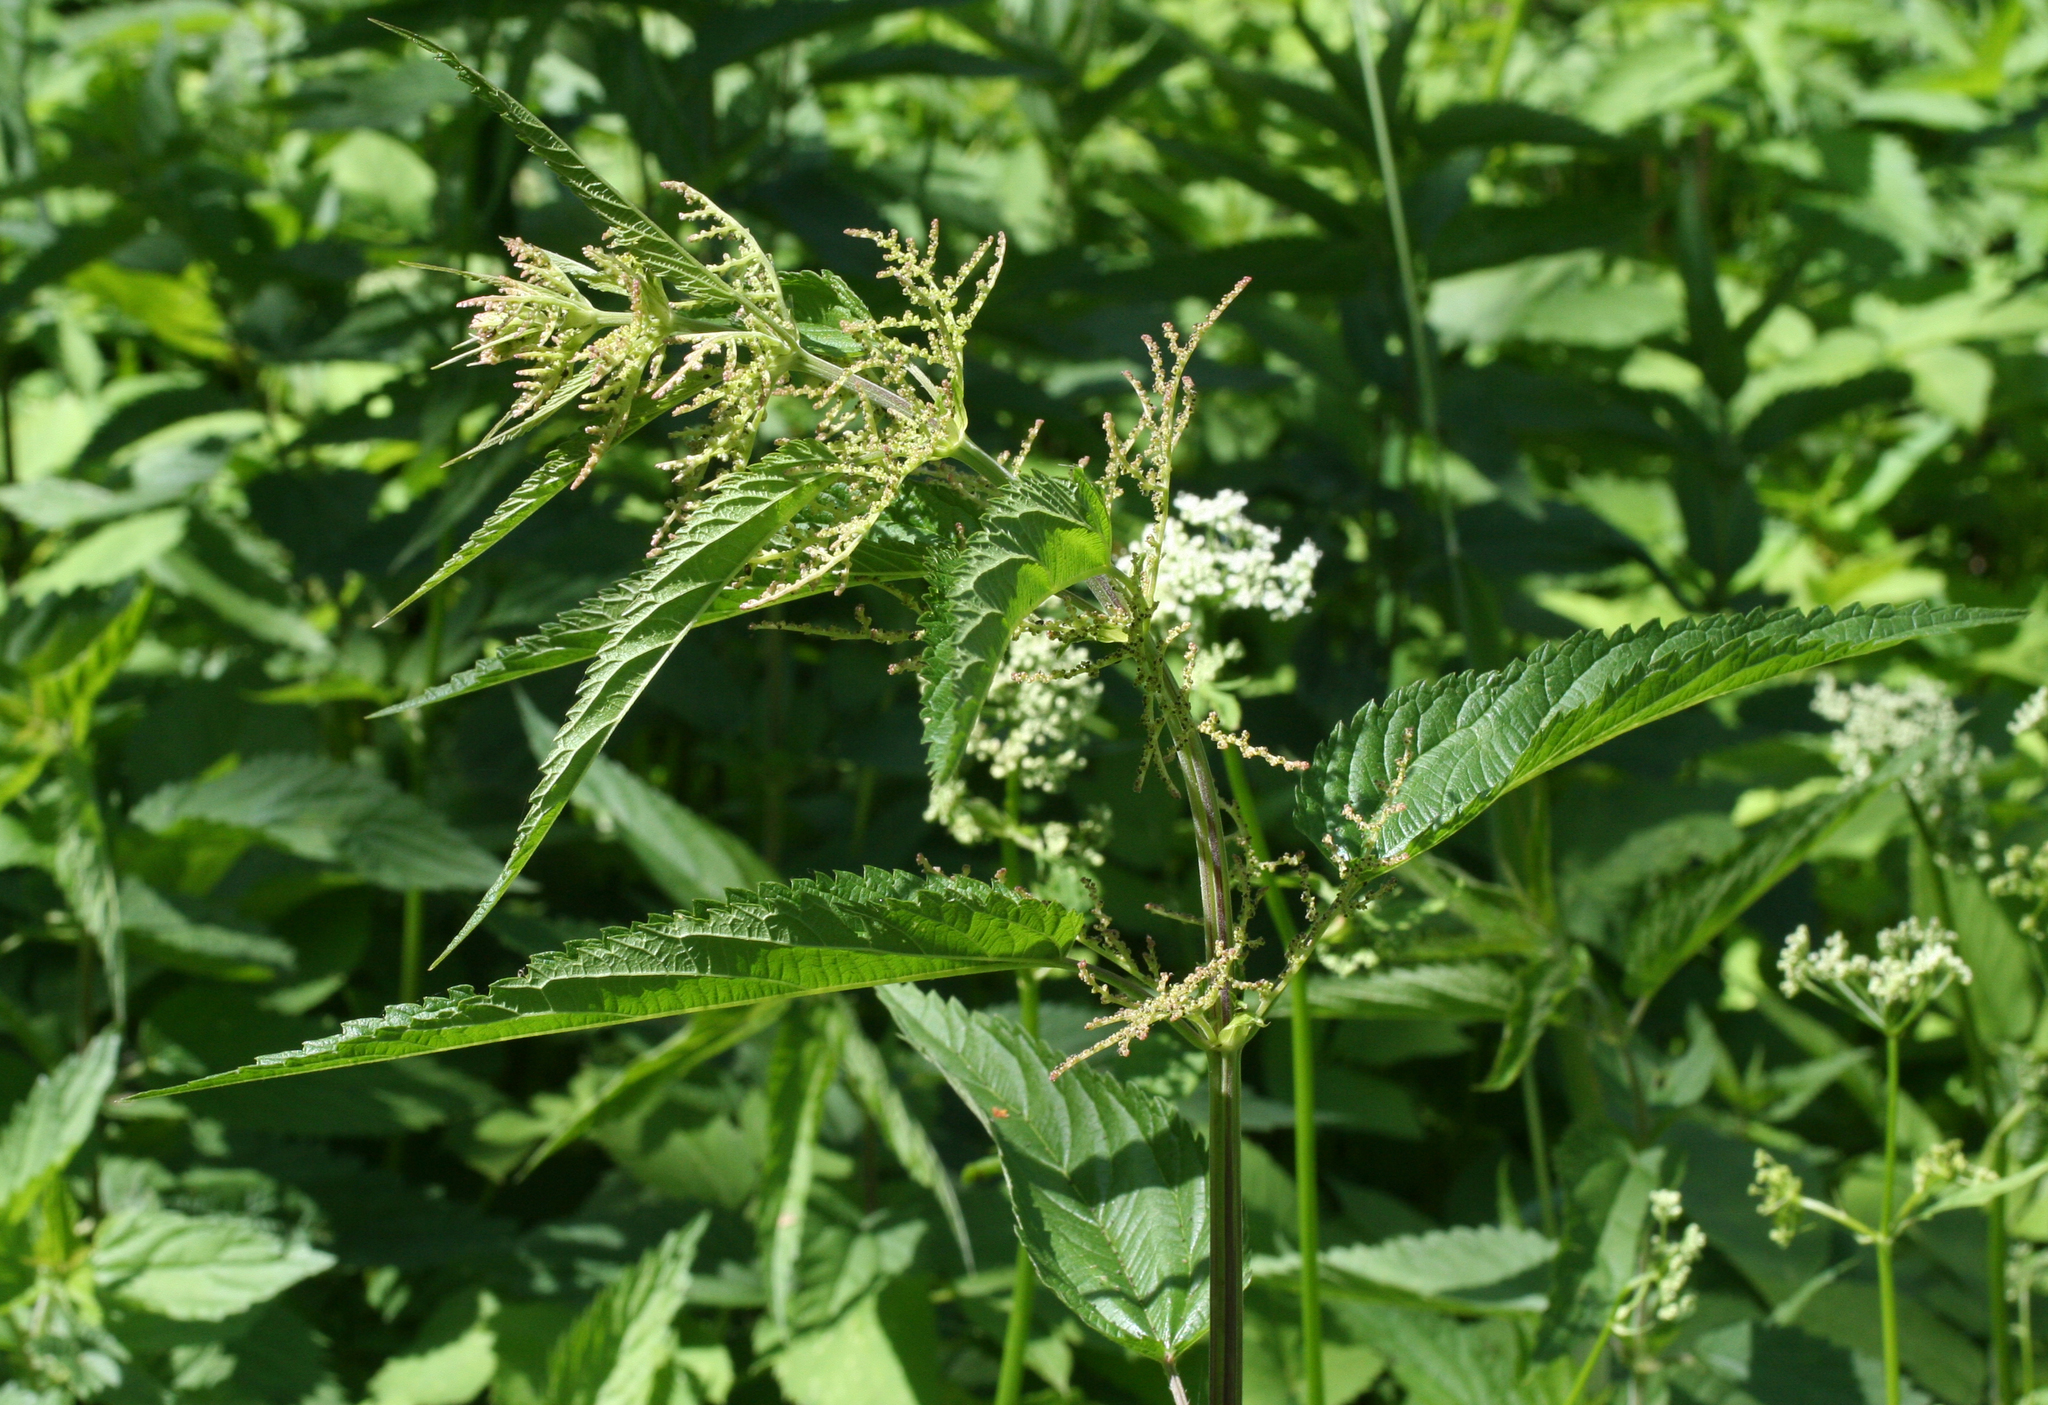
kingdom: Plantae
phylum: Tracheophyta
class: Magnoliopsida
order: Rosales
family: Urticaceae
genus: Urtica
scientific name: Urtica galeopsifolia
